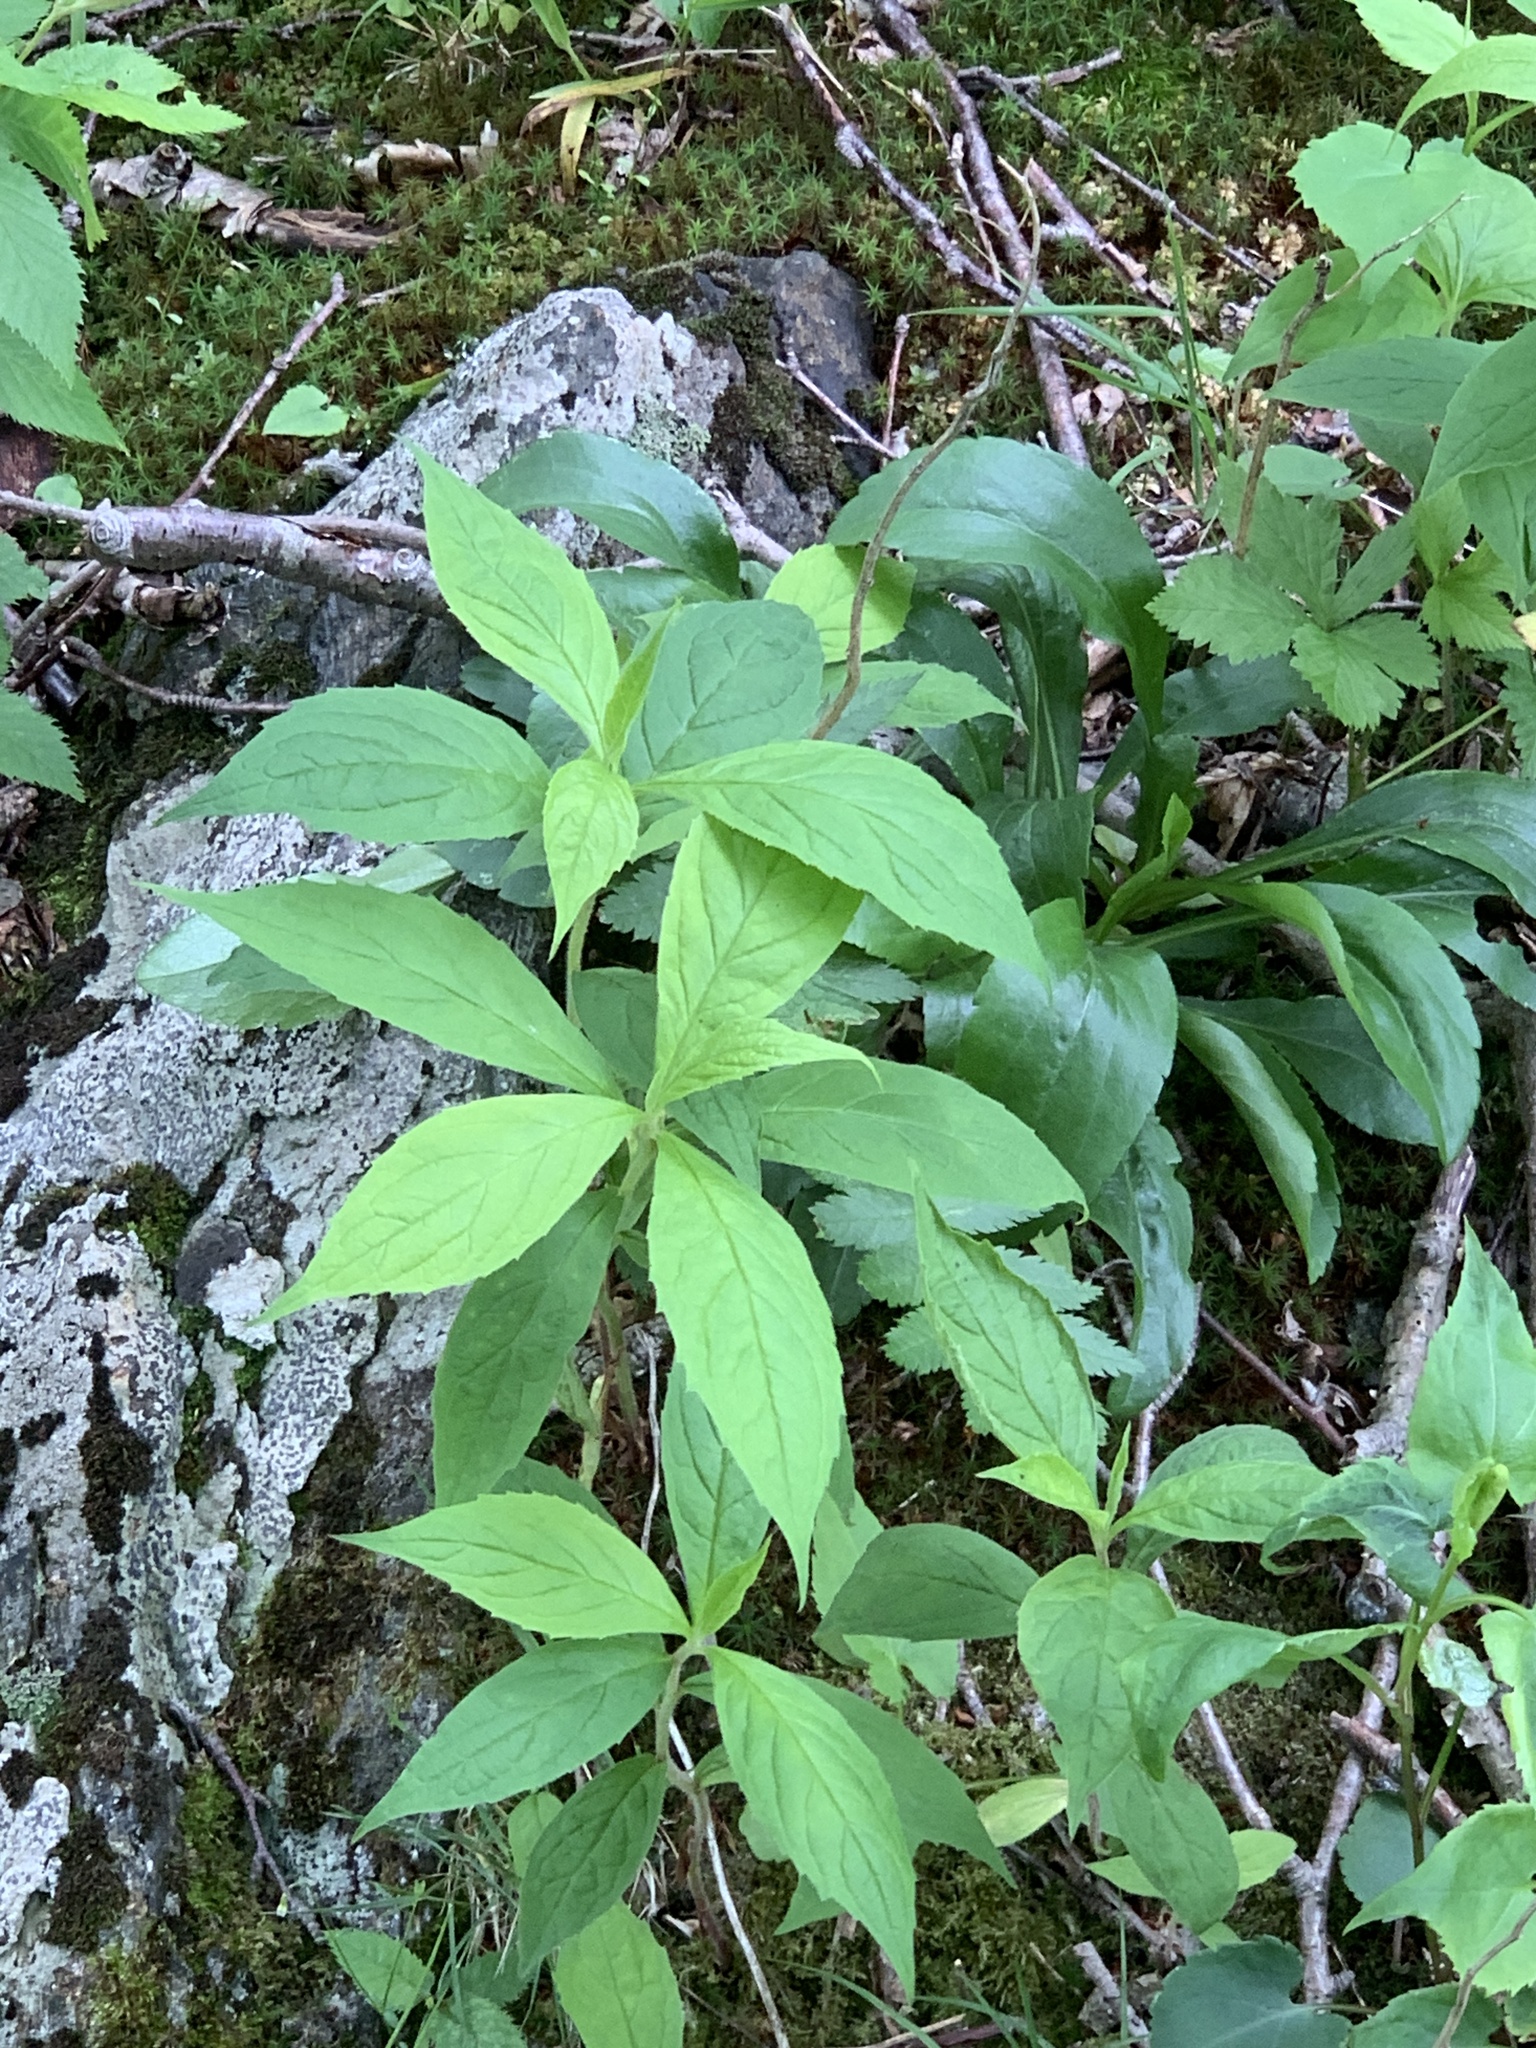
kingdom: Plantae
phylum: Tracheophyta
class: Magnoliopsida
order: Asterales
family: Asteraceae
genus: Oclemena
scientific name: Oclemena acuminata
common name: Mountain aster
